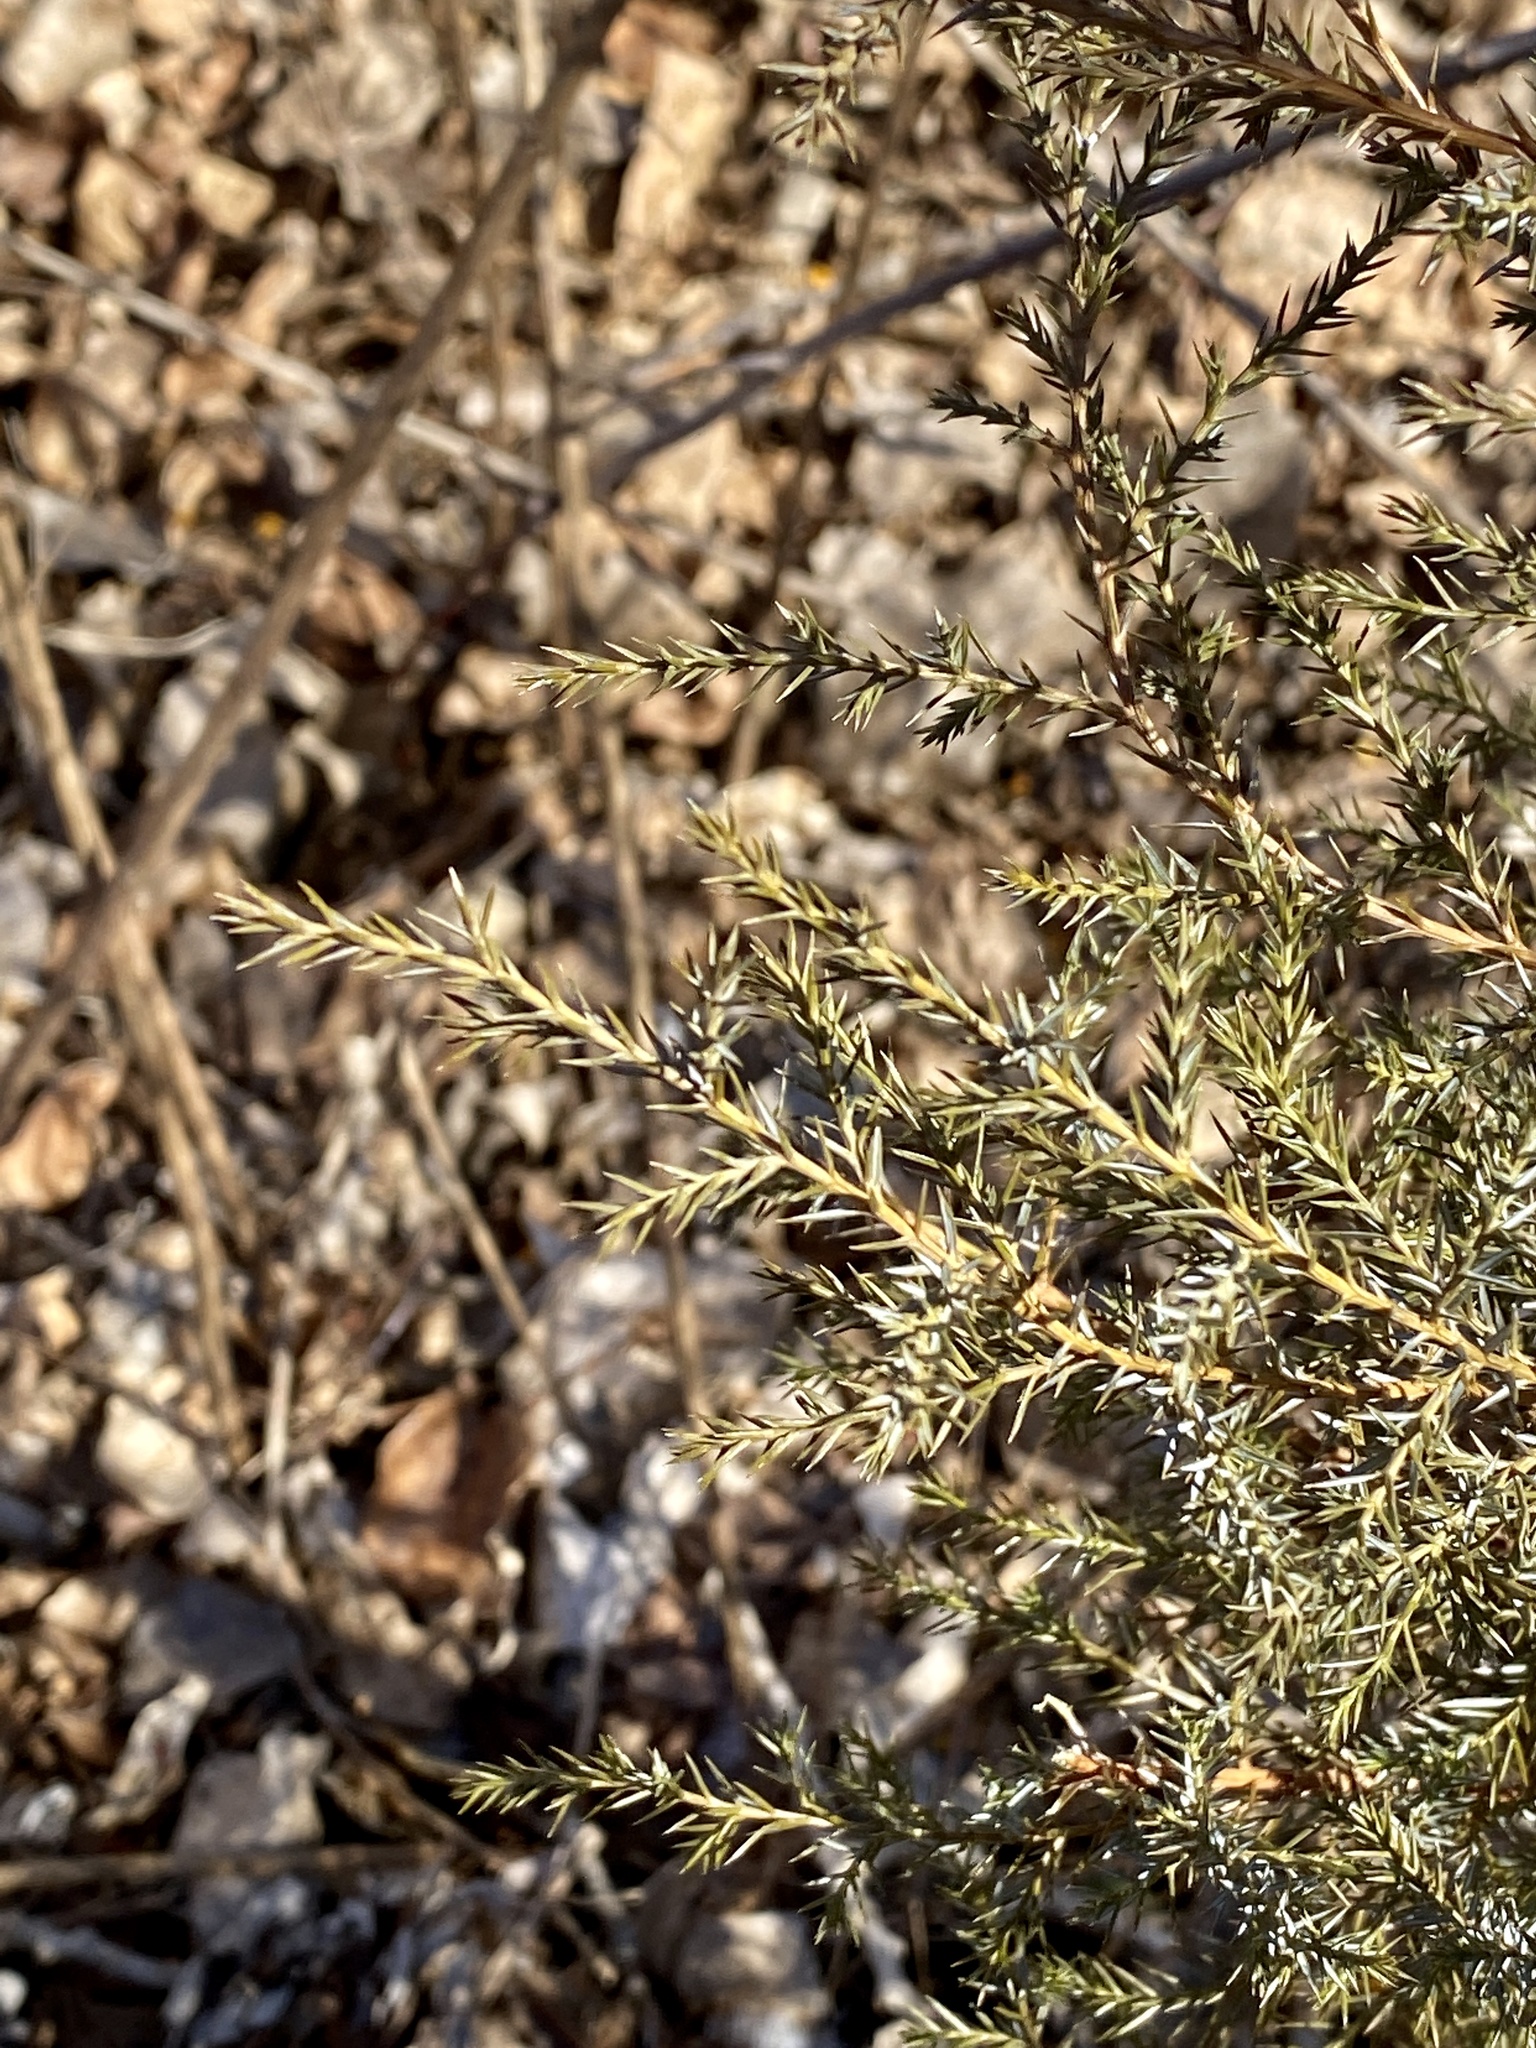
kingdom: Plantae
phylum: Tracheophyta
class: Pinopsida
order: Pinales
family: Cupressaceae
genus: Juniperus
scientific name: Juniperus virginiana
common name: Red juniper
